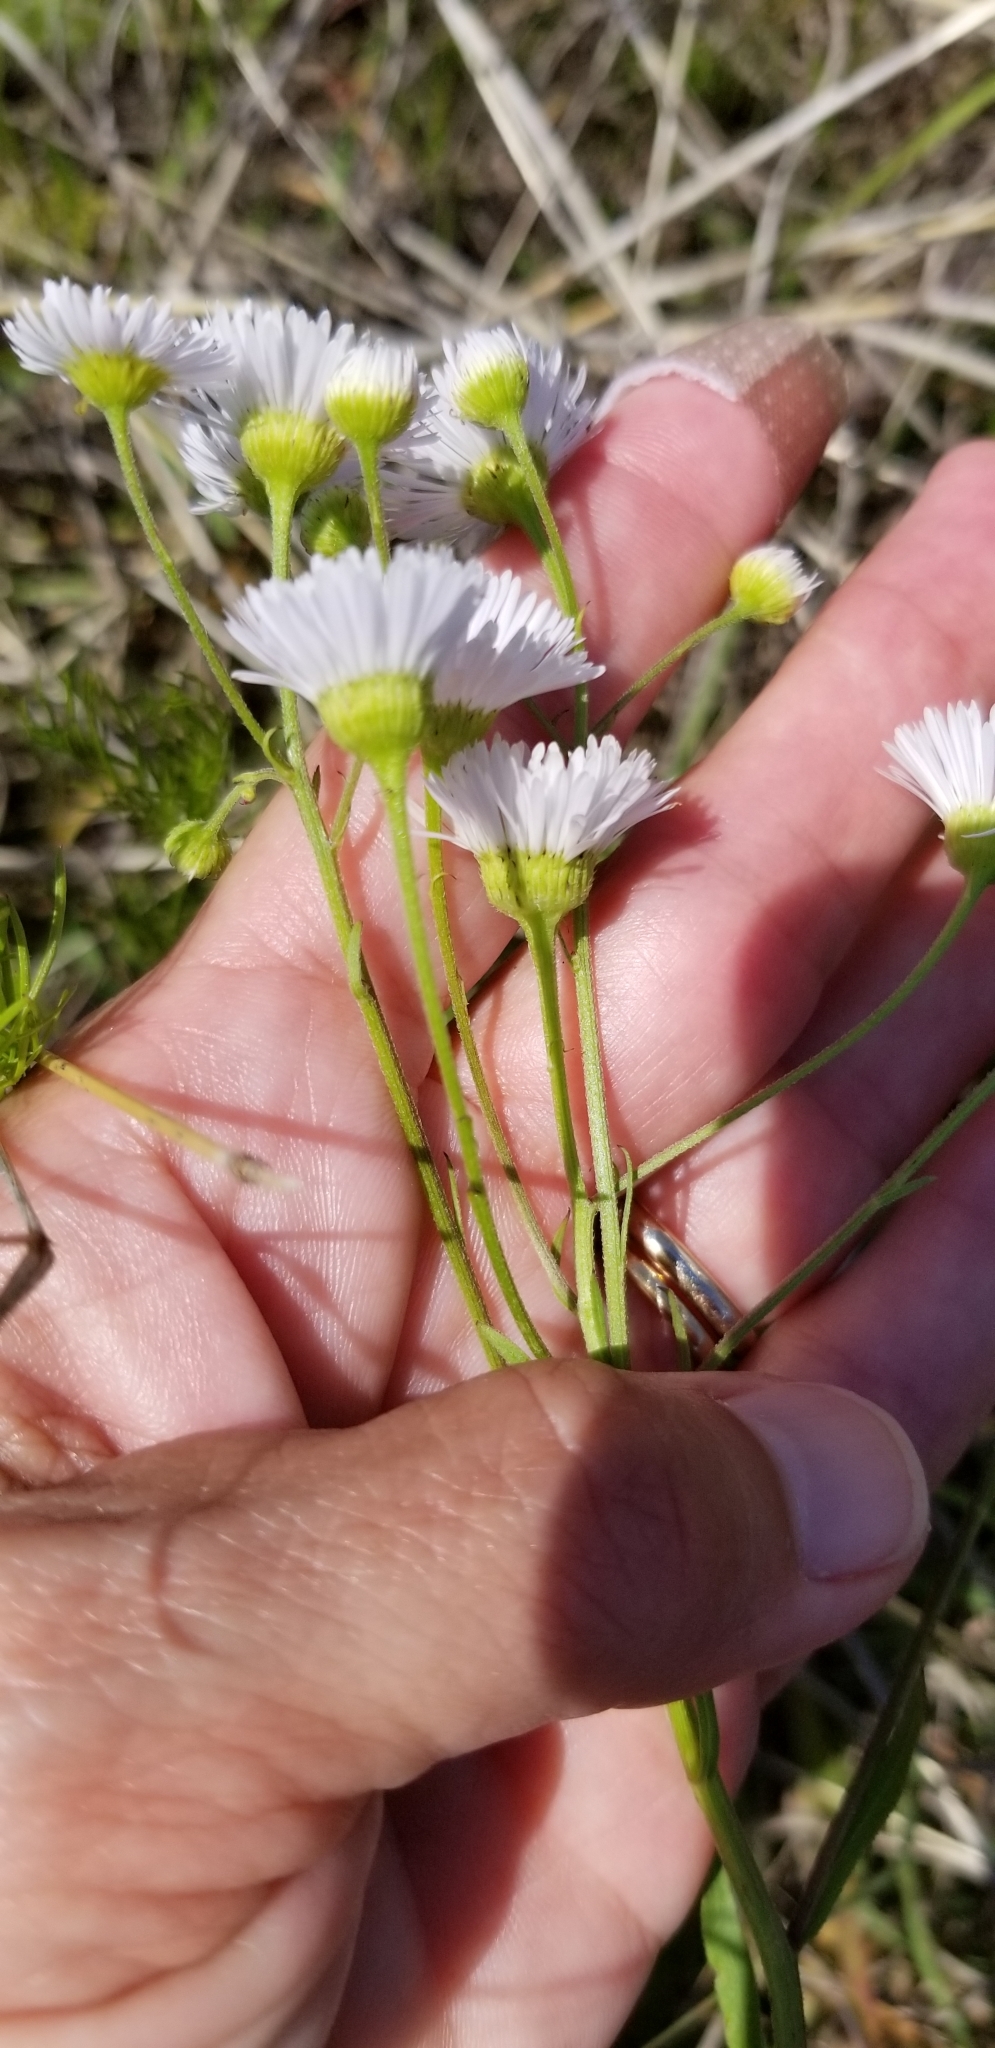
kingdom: Plantae
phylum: Tracheophyta
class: Magnoliopsida
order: Asterales
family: Asteraceae
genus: Erigeron
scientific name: Erigeron strigosus
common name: Common eastern fleabane
